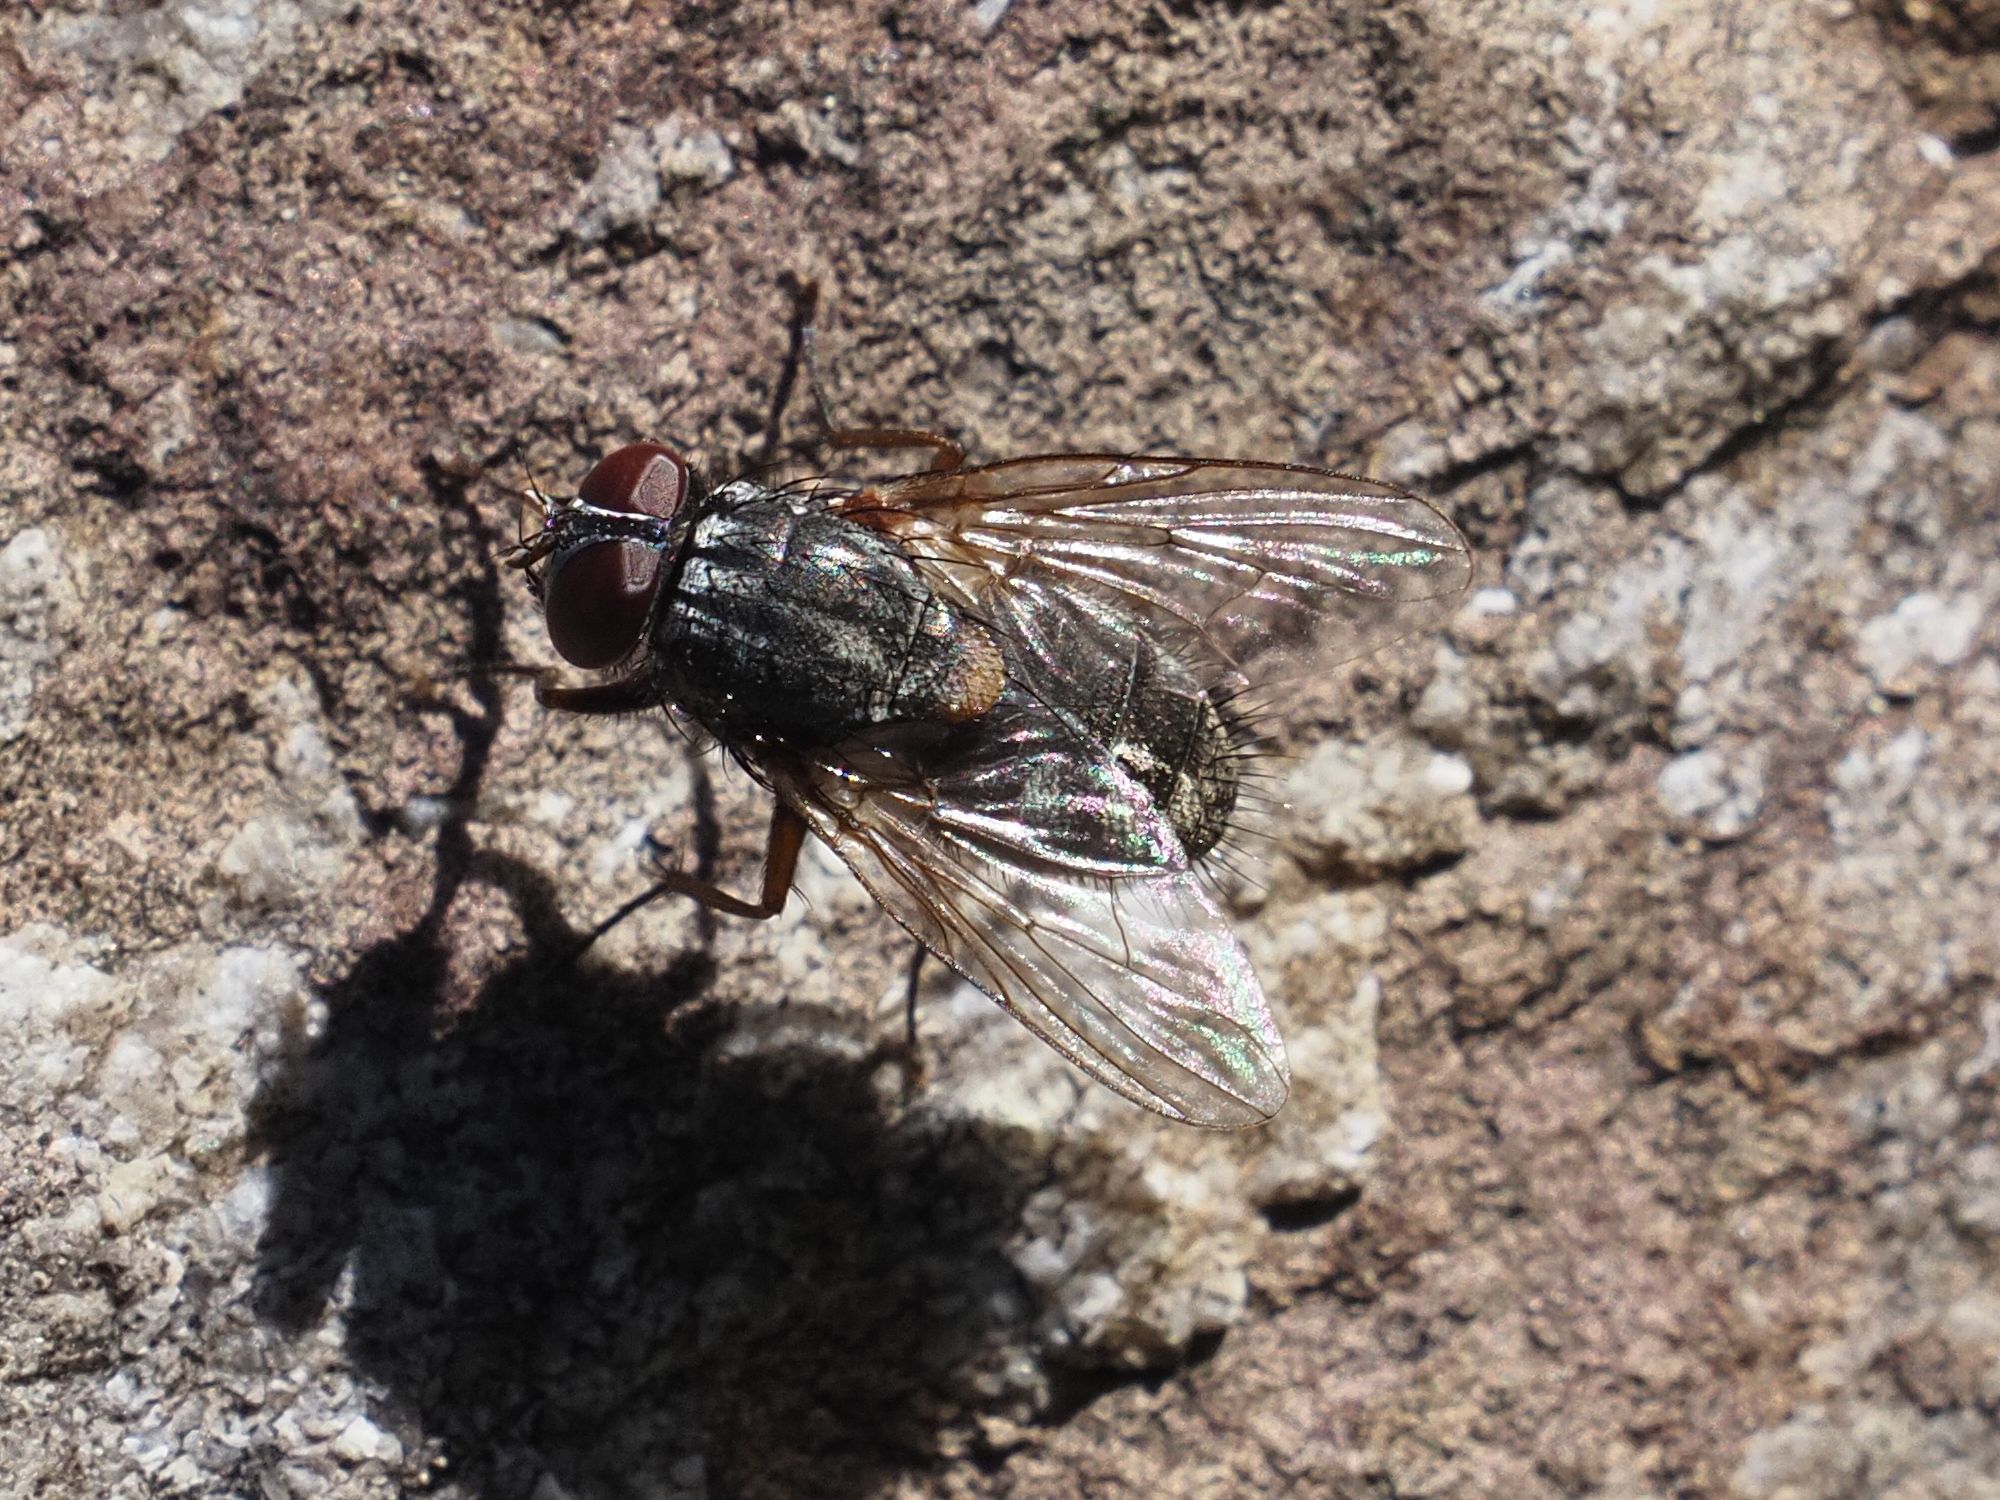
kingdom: Animalia
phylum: Arthropoda
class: Insecta
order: Diptera
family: Muscidae
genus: Muscina
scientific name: Muscina stabulans
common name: False stable fly
